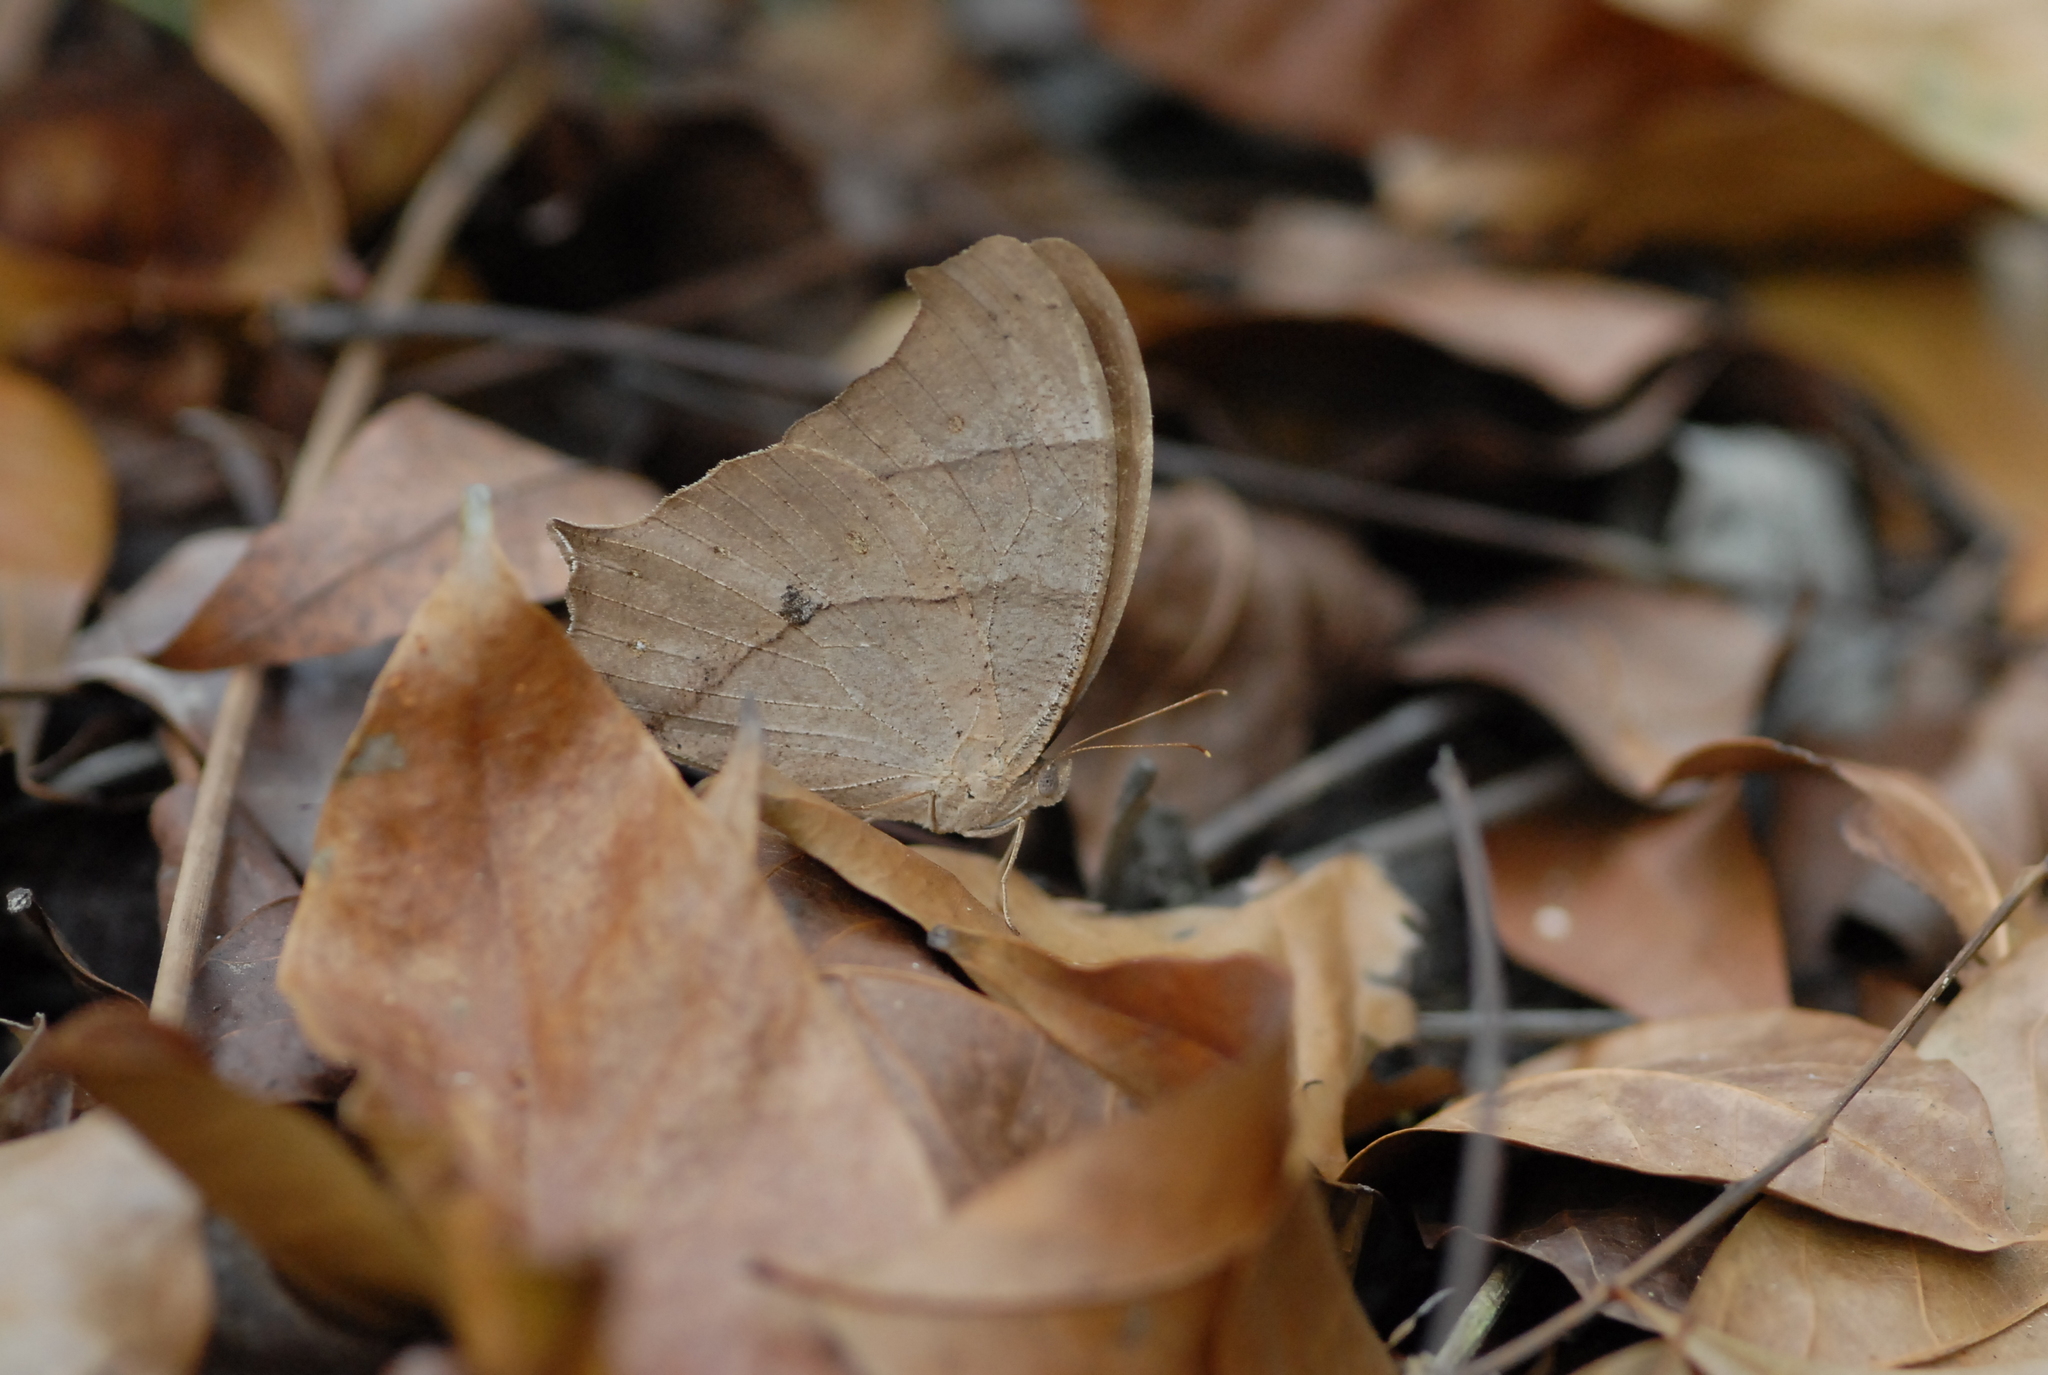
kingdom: Animalia
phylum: Arthropoda
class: Insecta
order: Lepidoptera
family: Nymphalidae
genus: Melanitis
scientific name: Melanitis phedima
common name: Dark evening brown
